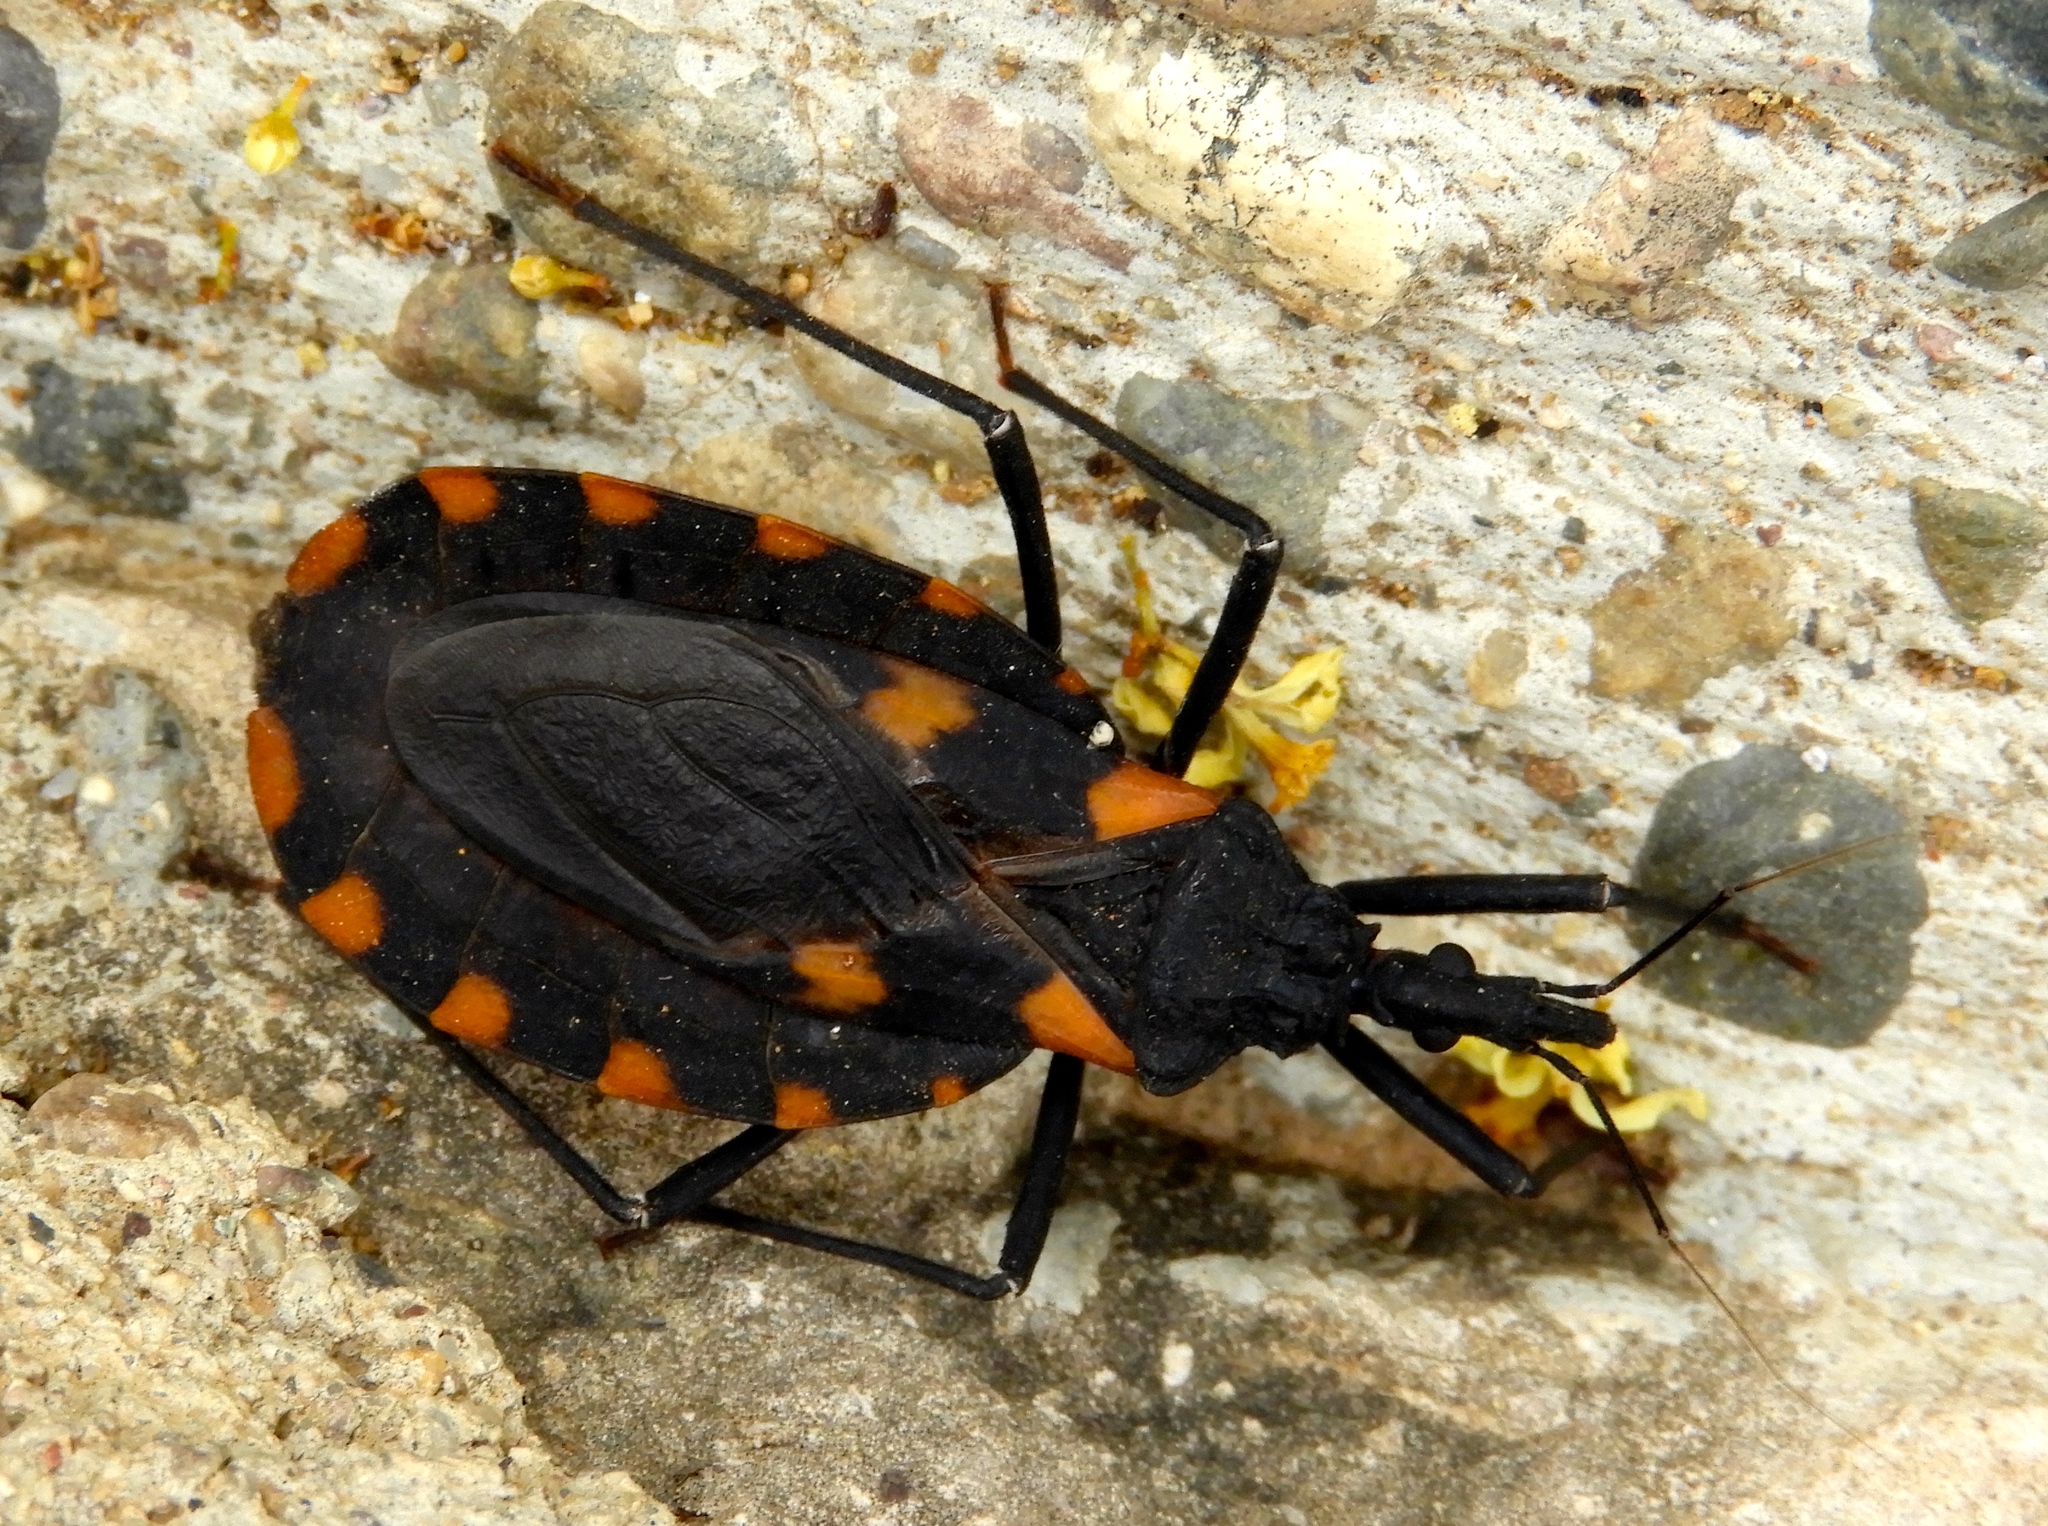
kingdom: Animalia
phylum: Arthropoda
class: Insecta
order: Hemiptera
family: Reduviidae
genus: Meccus
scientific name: Meccus longipennis
